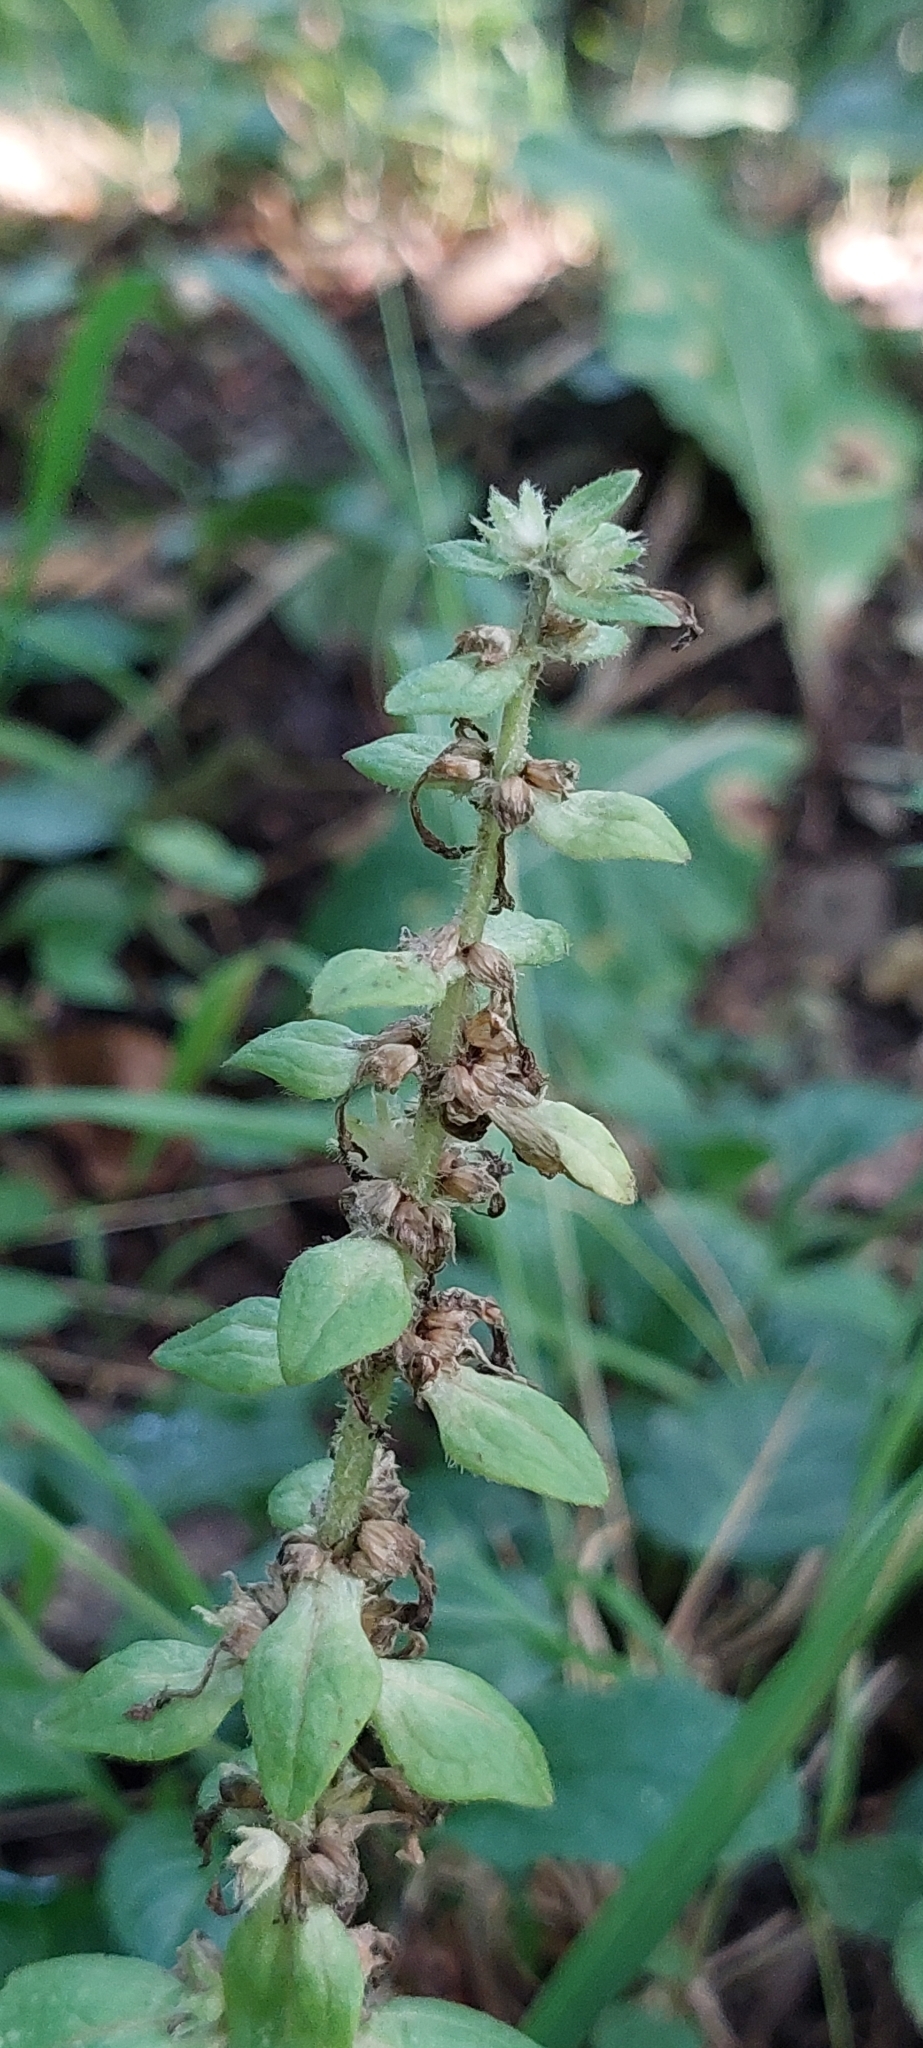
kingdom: Plantae
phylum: Tracheophyta
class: Magnoliopsida
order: Lamiales
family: Lamiaceae
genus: Ajuga
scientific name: Ajuga reptans
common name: Bugle
